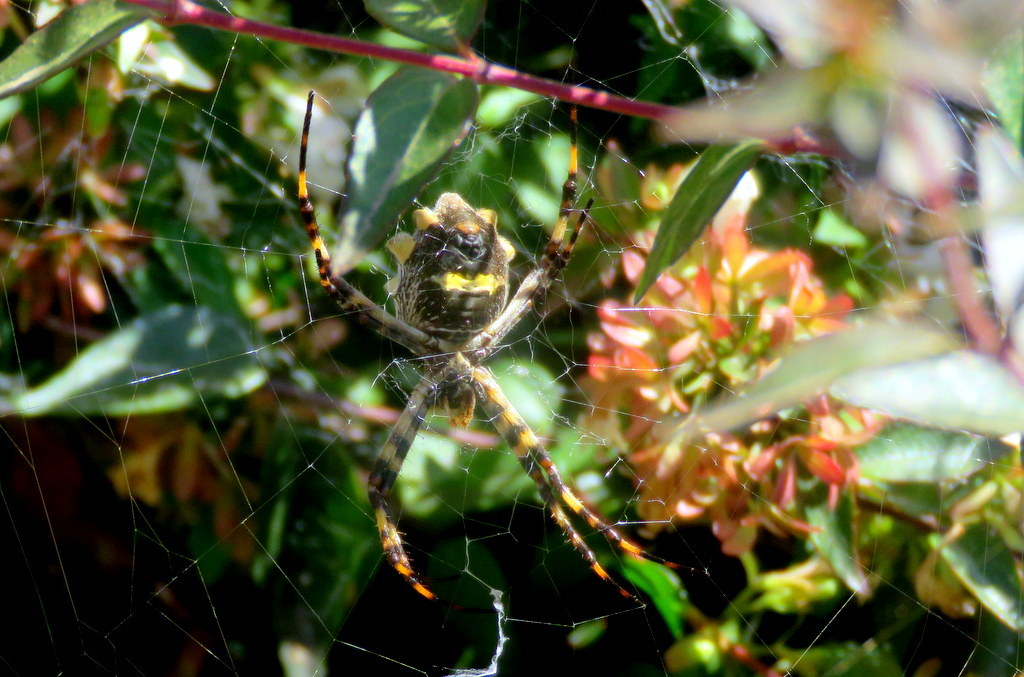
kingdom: Animalia
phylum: Arthropoda
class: Arachnida
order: Araneae
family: Araneidae
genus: Argiope
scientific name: Argiope argentata
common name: Orb weavers
